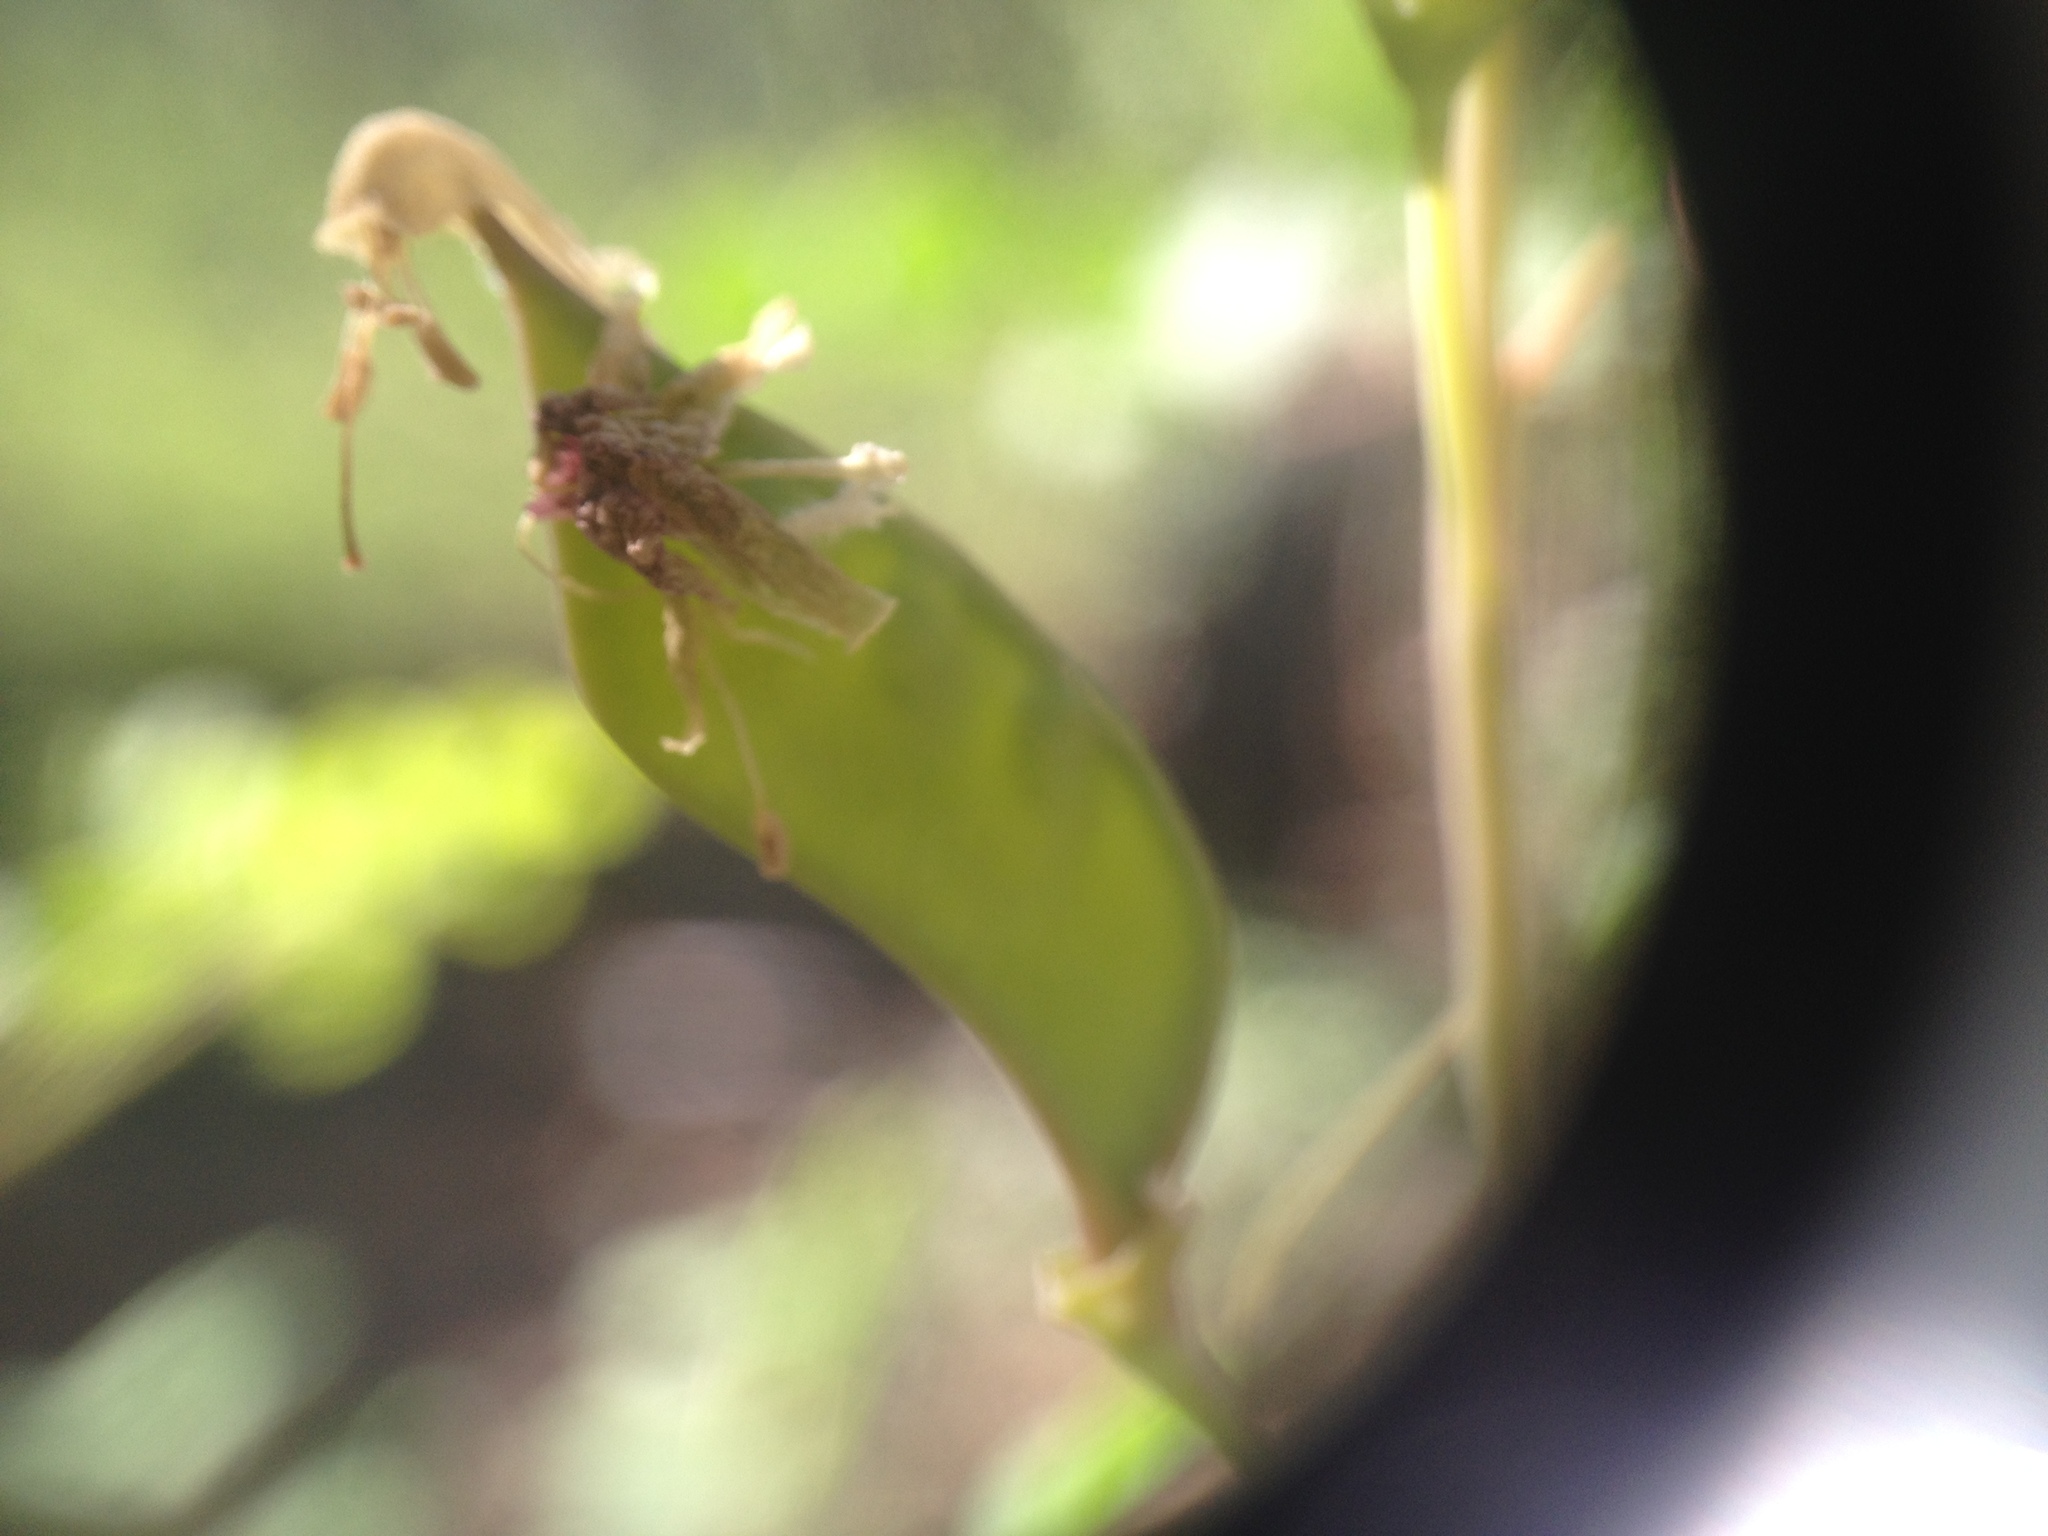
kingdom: Plantae
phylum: Tracheophyta
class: Magnoliopsida
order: Fabales
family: Fabaceae
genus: Denisophytum
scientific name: Denisophytum stuckertii
